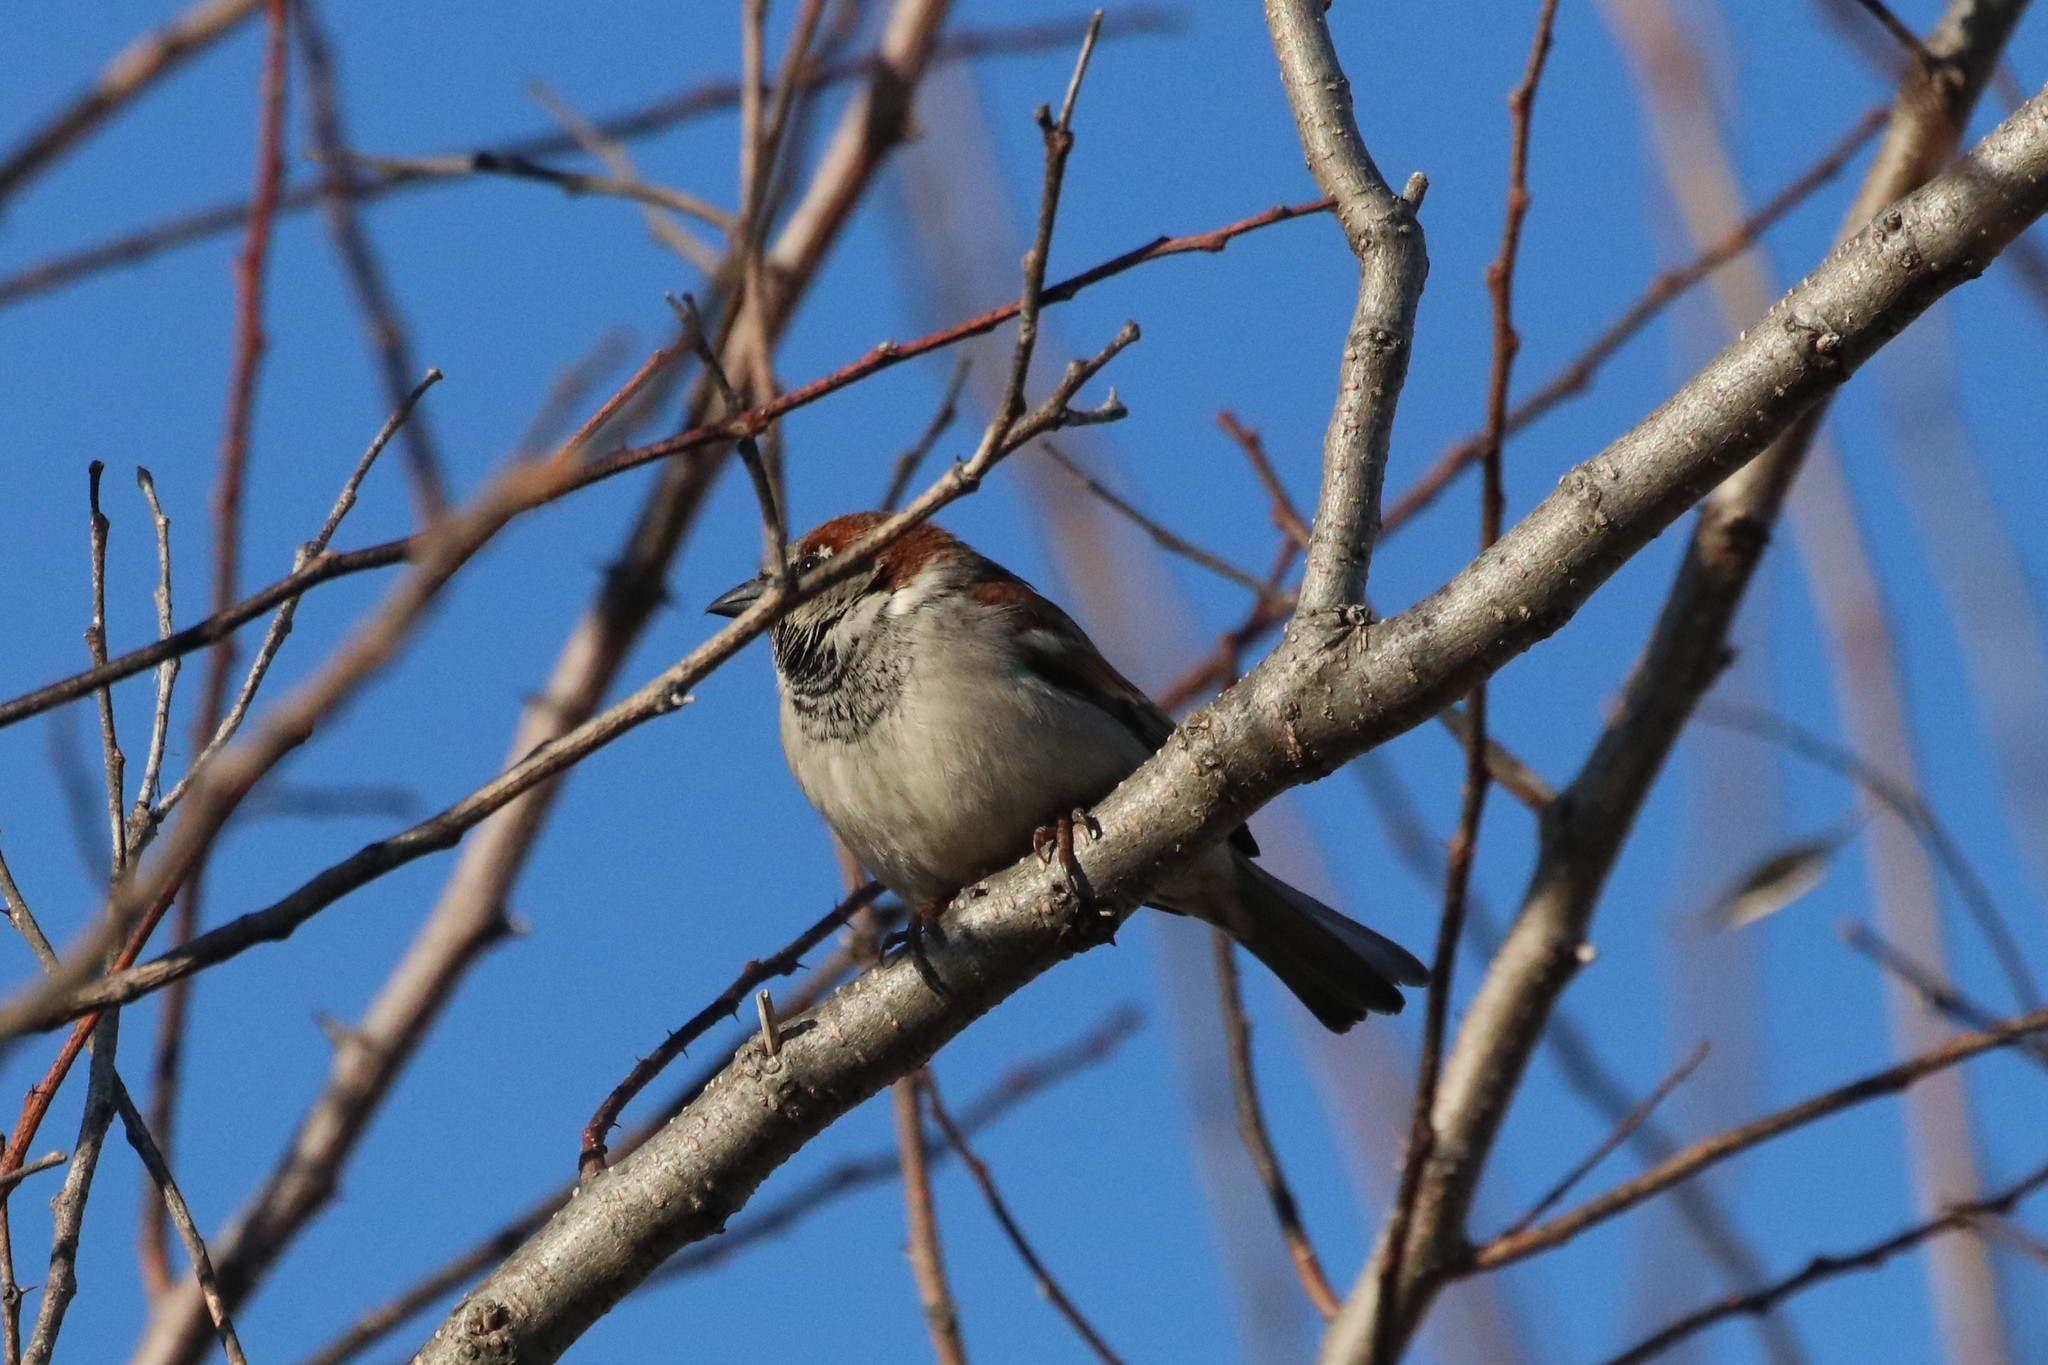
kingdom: Animalia
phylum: Chordata
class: Aves
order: Passeriformes
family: Passeridae
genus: Passer
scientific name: Passer domesticus
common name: House sparrow
